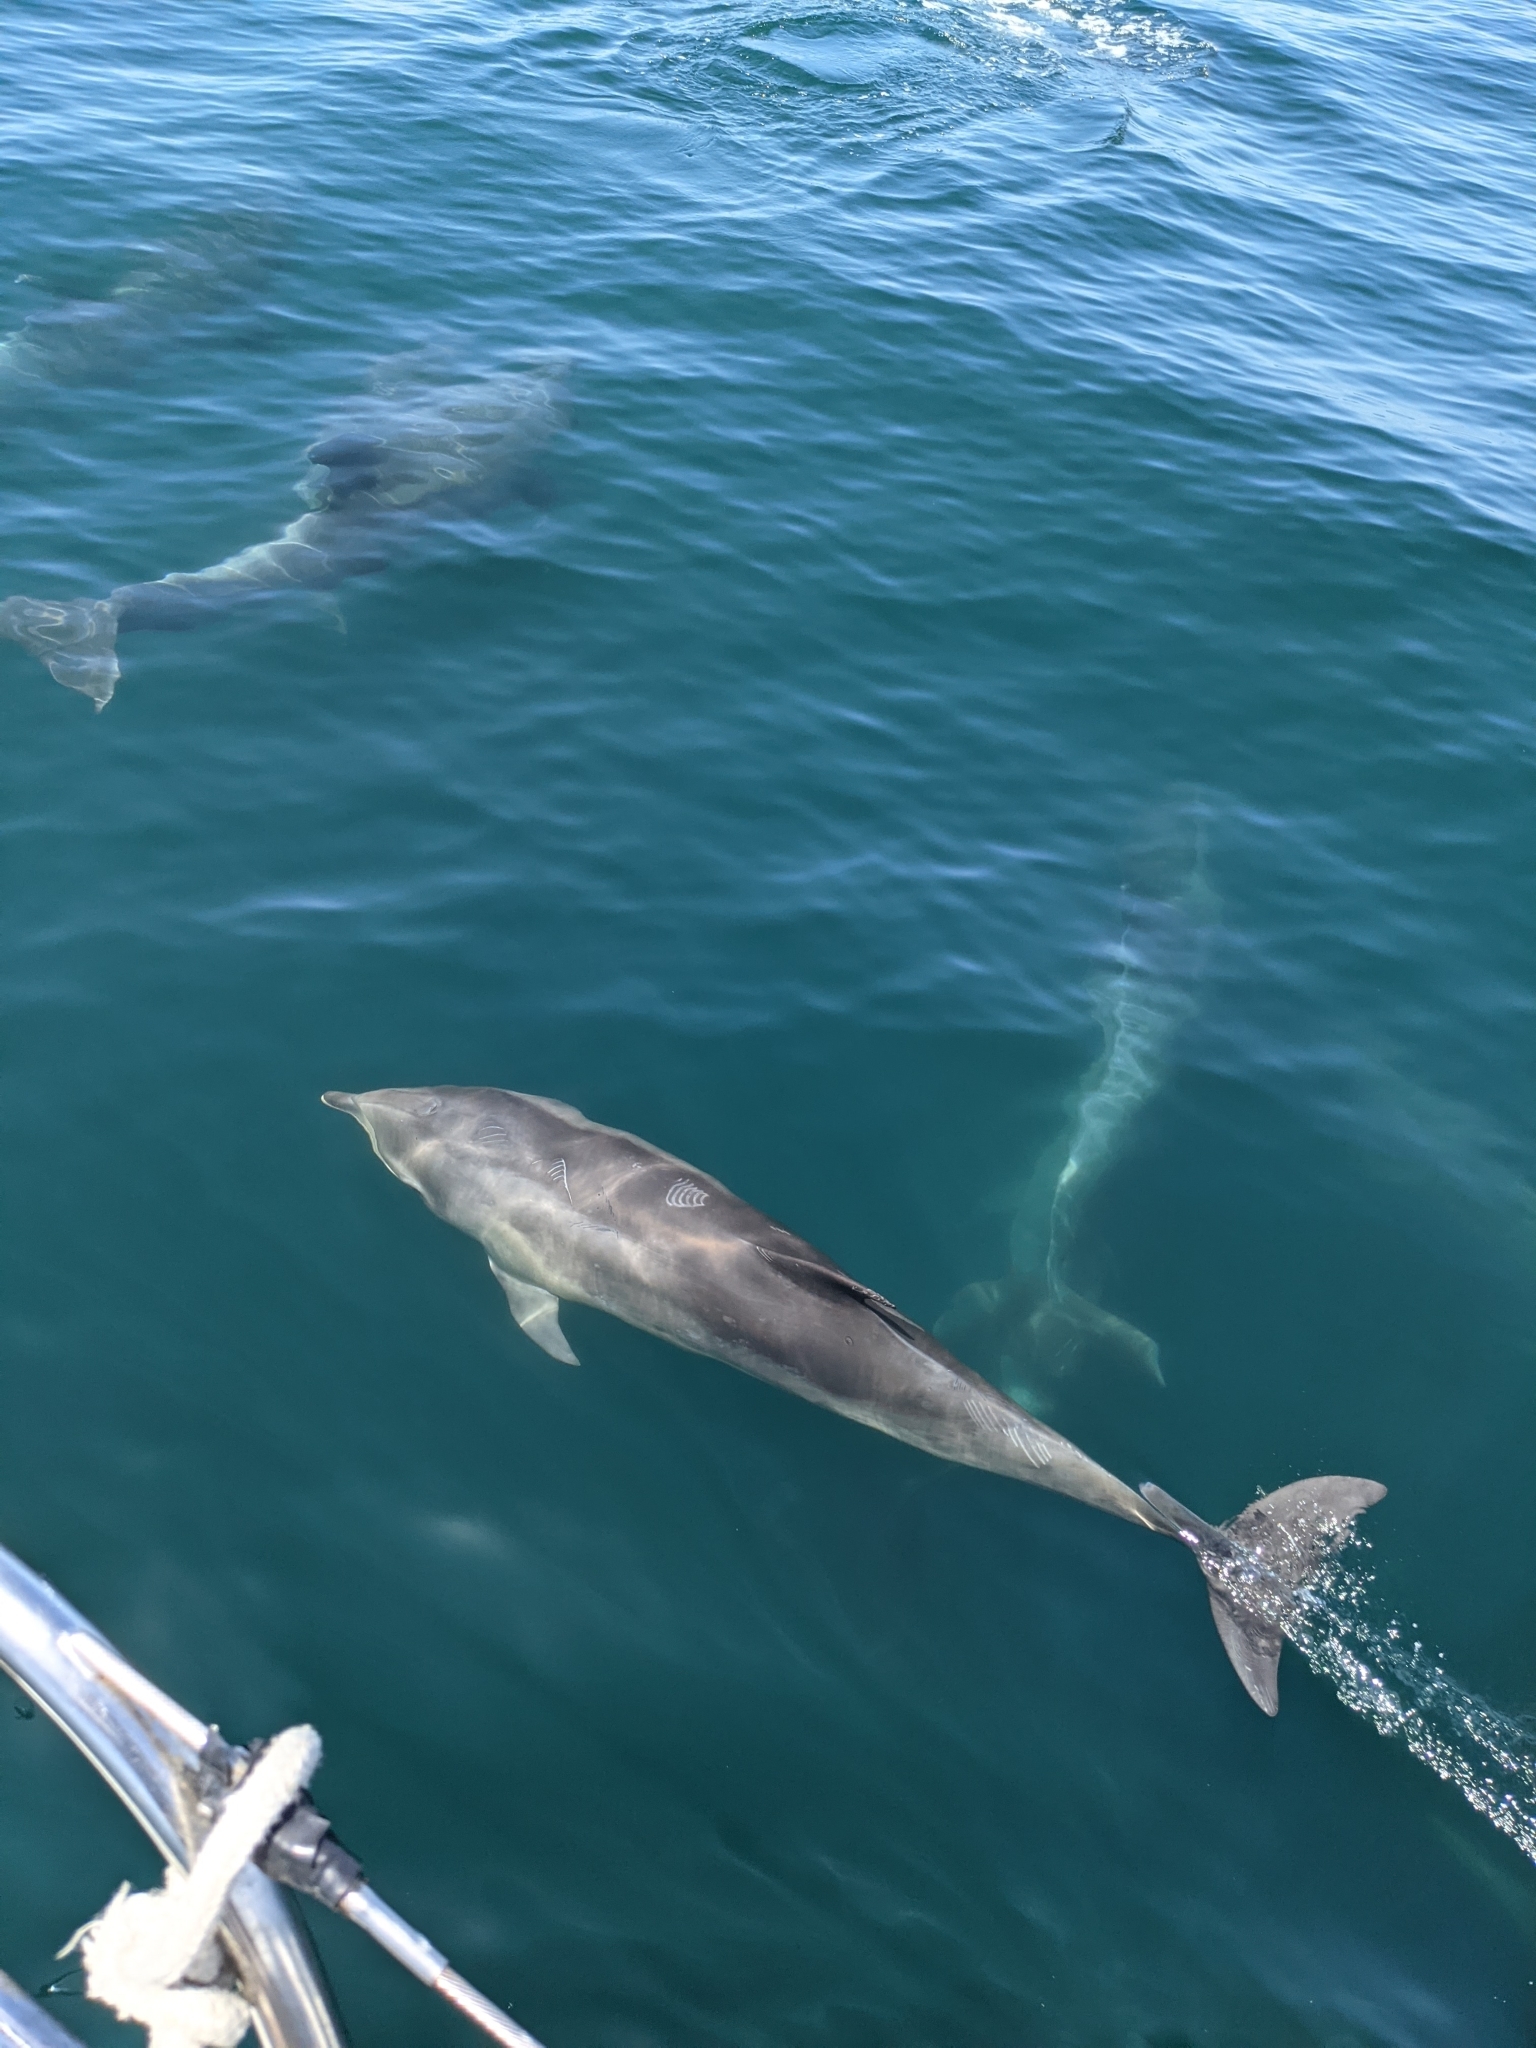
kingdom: Animalia
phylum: Chordata
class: Mammalia
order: Cetacea
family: Delphinidae
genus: Tursiops
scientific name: Tursiops truncatus
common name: Bottlenose dolphin
